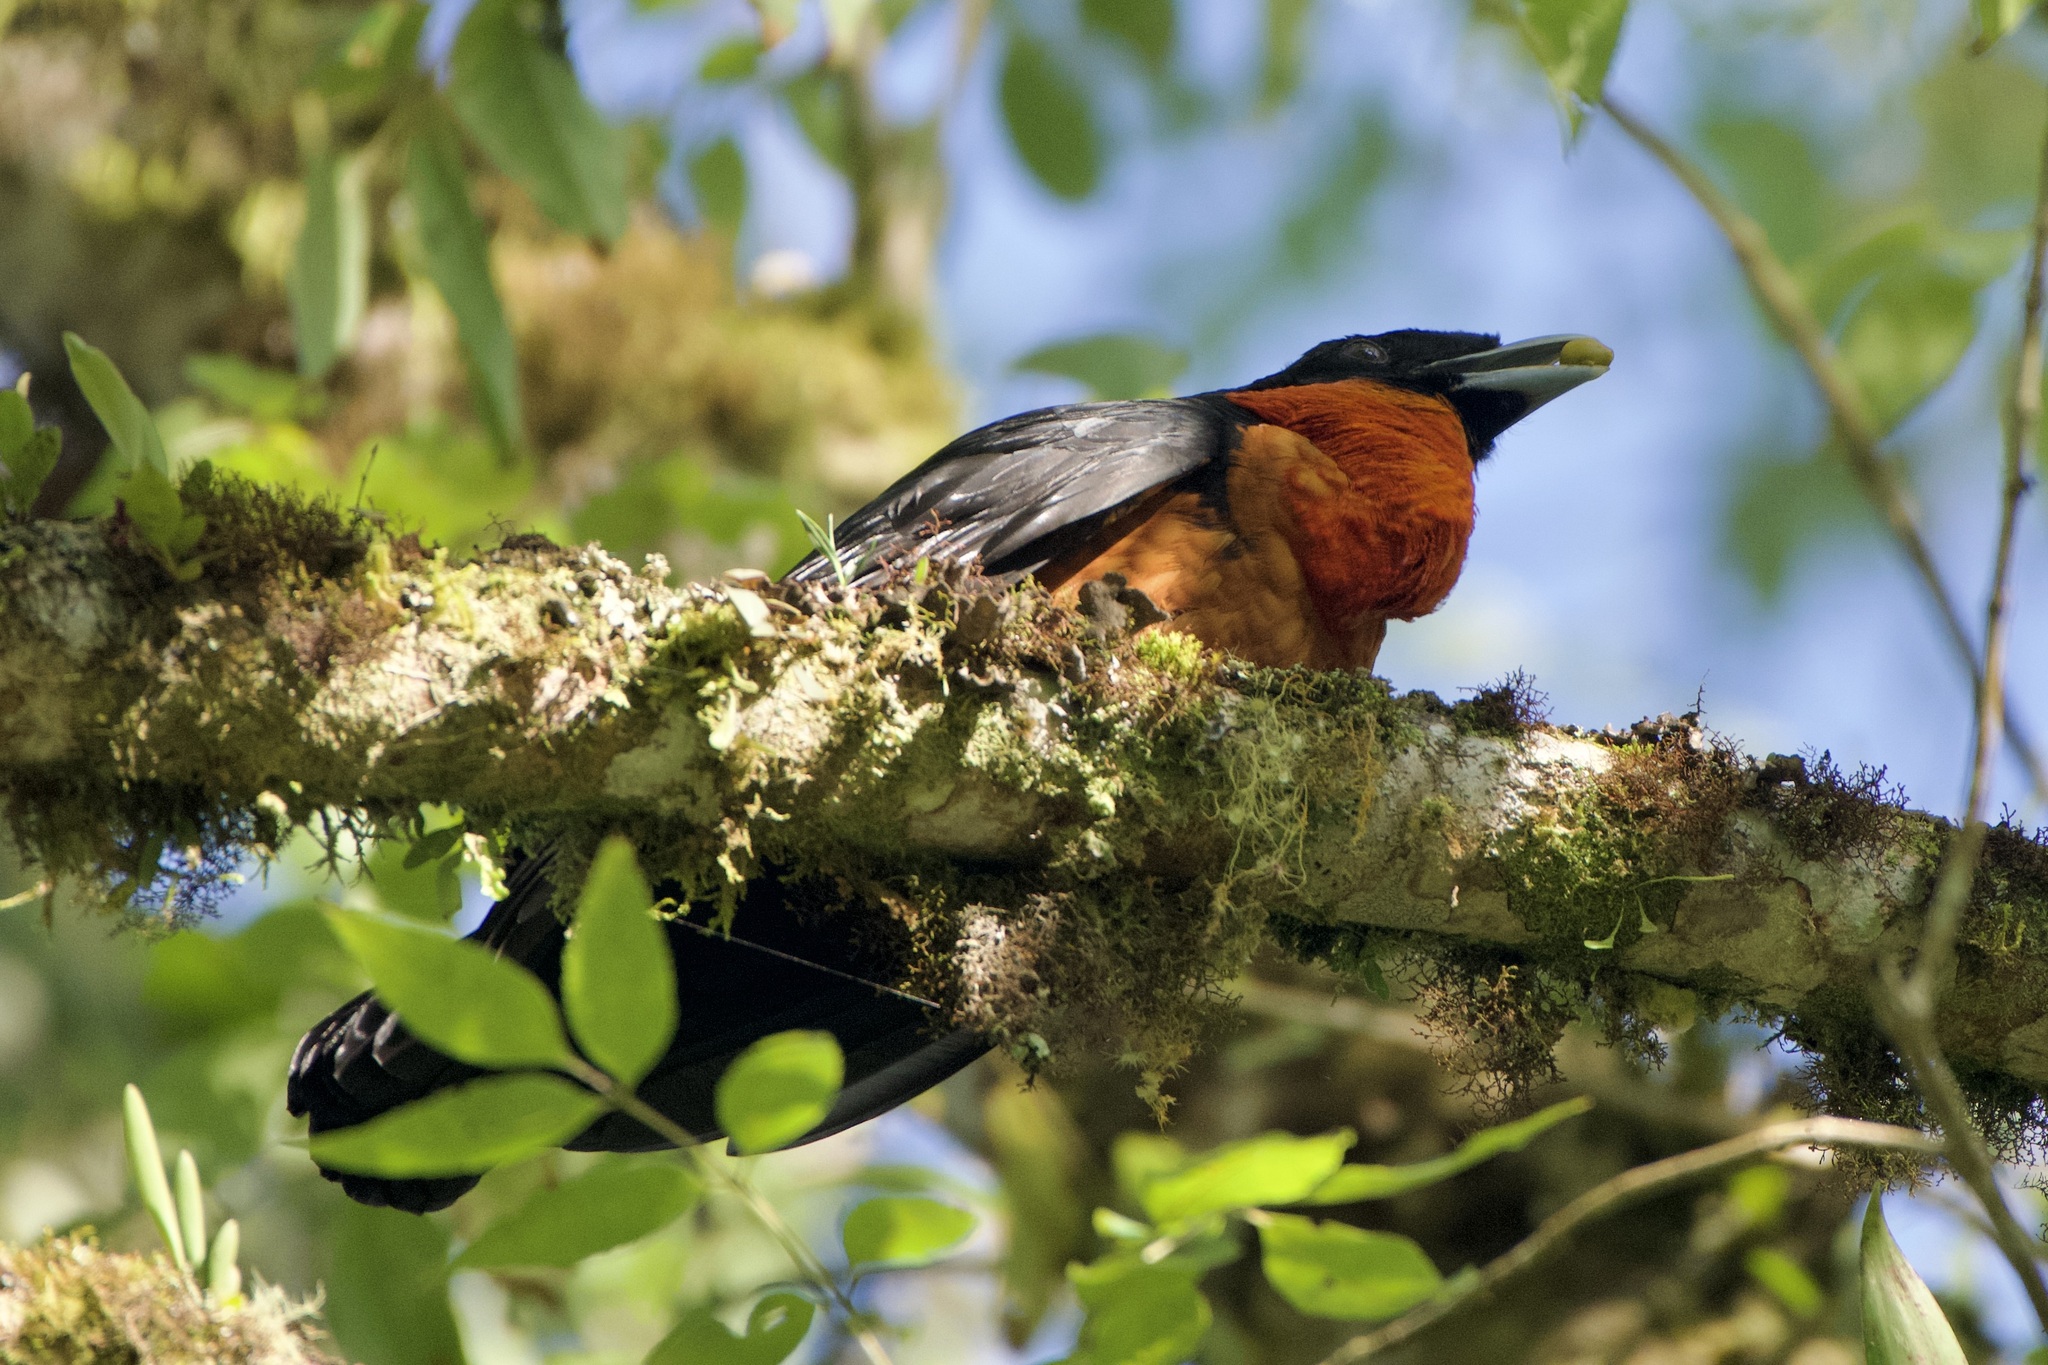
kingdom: Animalia
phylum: Chordata
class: Aves
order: Passeriformes
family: Cotingidae
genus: Pyroderus
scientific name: Pyroderus scutatus
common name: Red-ruffed fruitcrow
